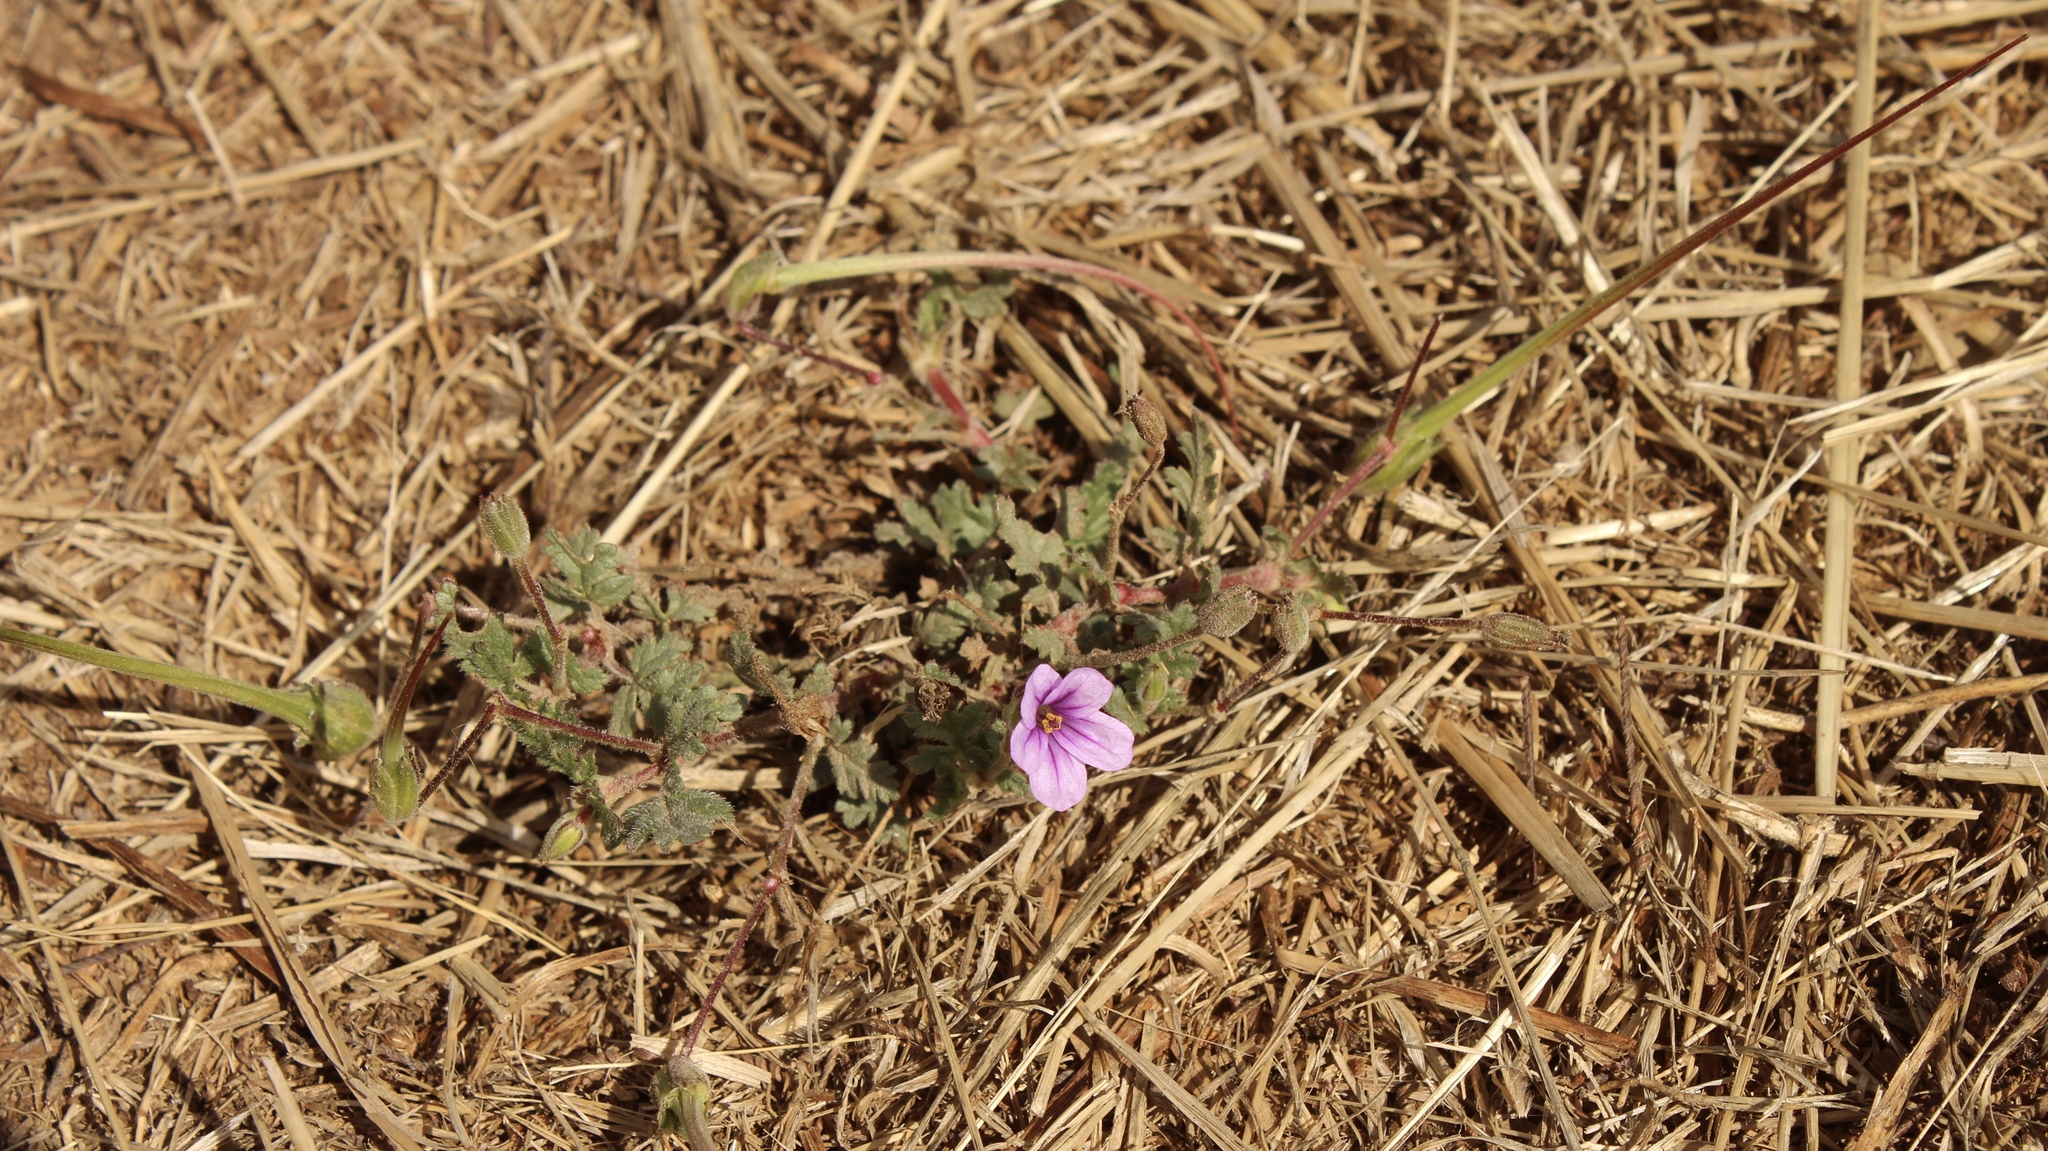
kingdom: Plantae
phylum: Tracheophyta
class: Magnoliopsida
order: Geraniales
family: Geraniaceae
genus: Erodium
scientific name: Erodium botrys
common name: Mediterranean stork's-bill
